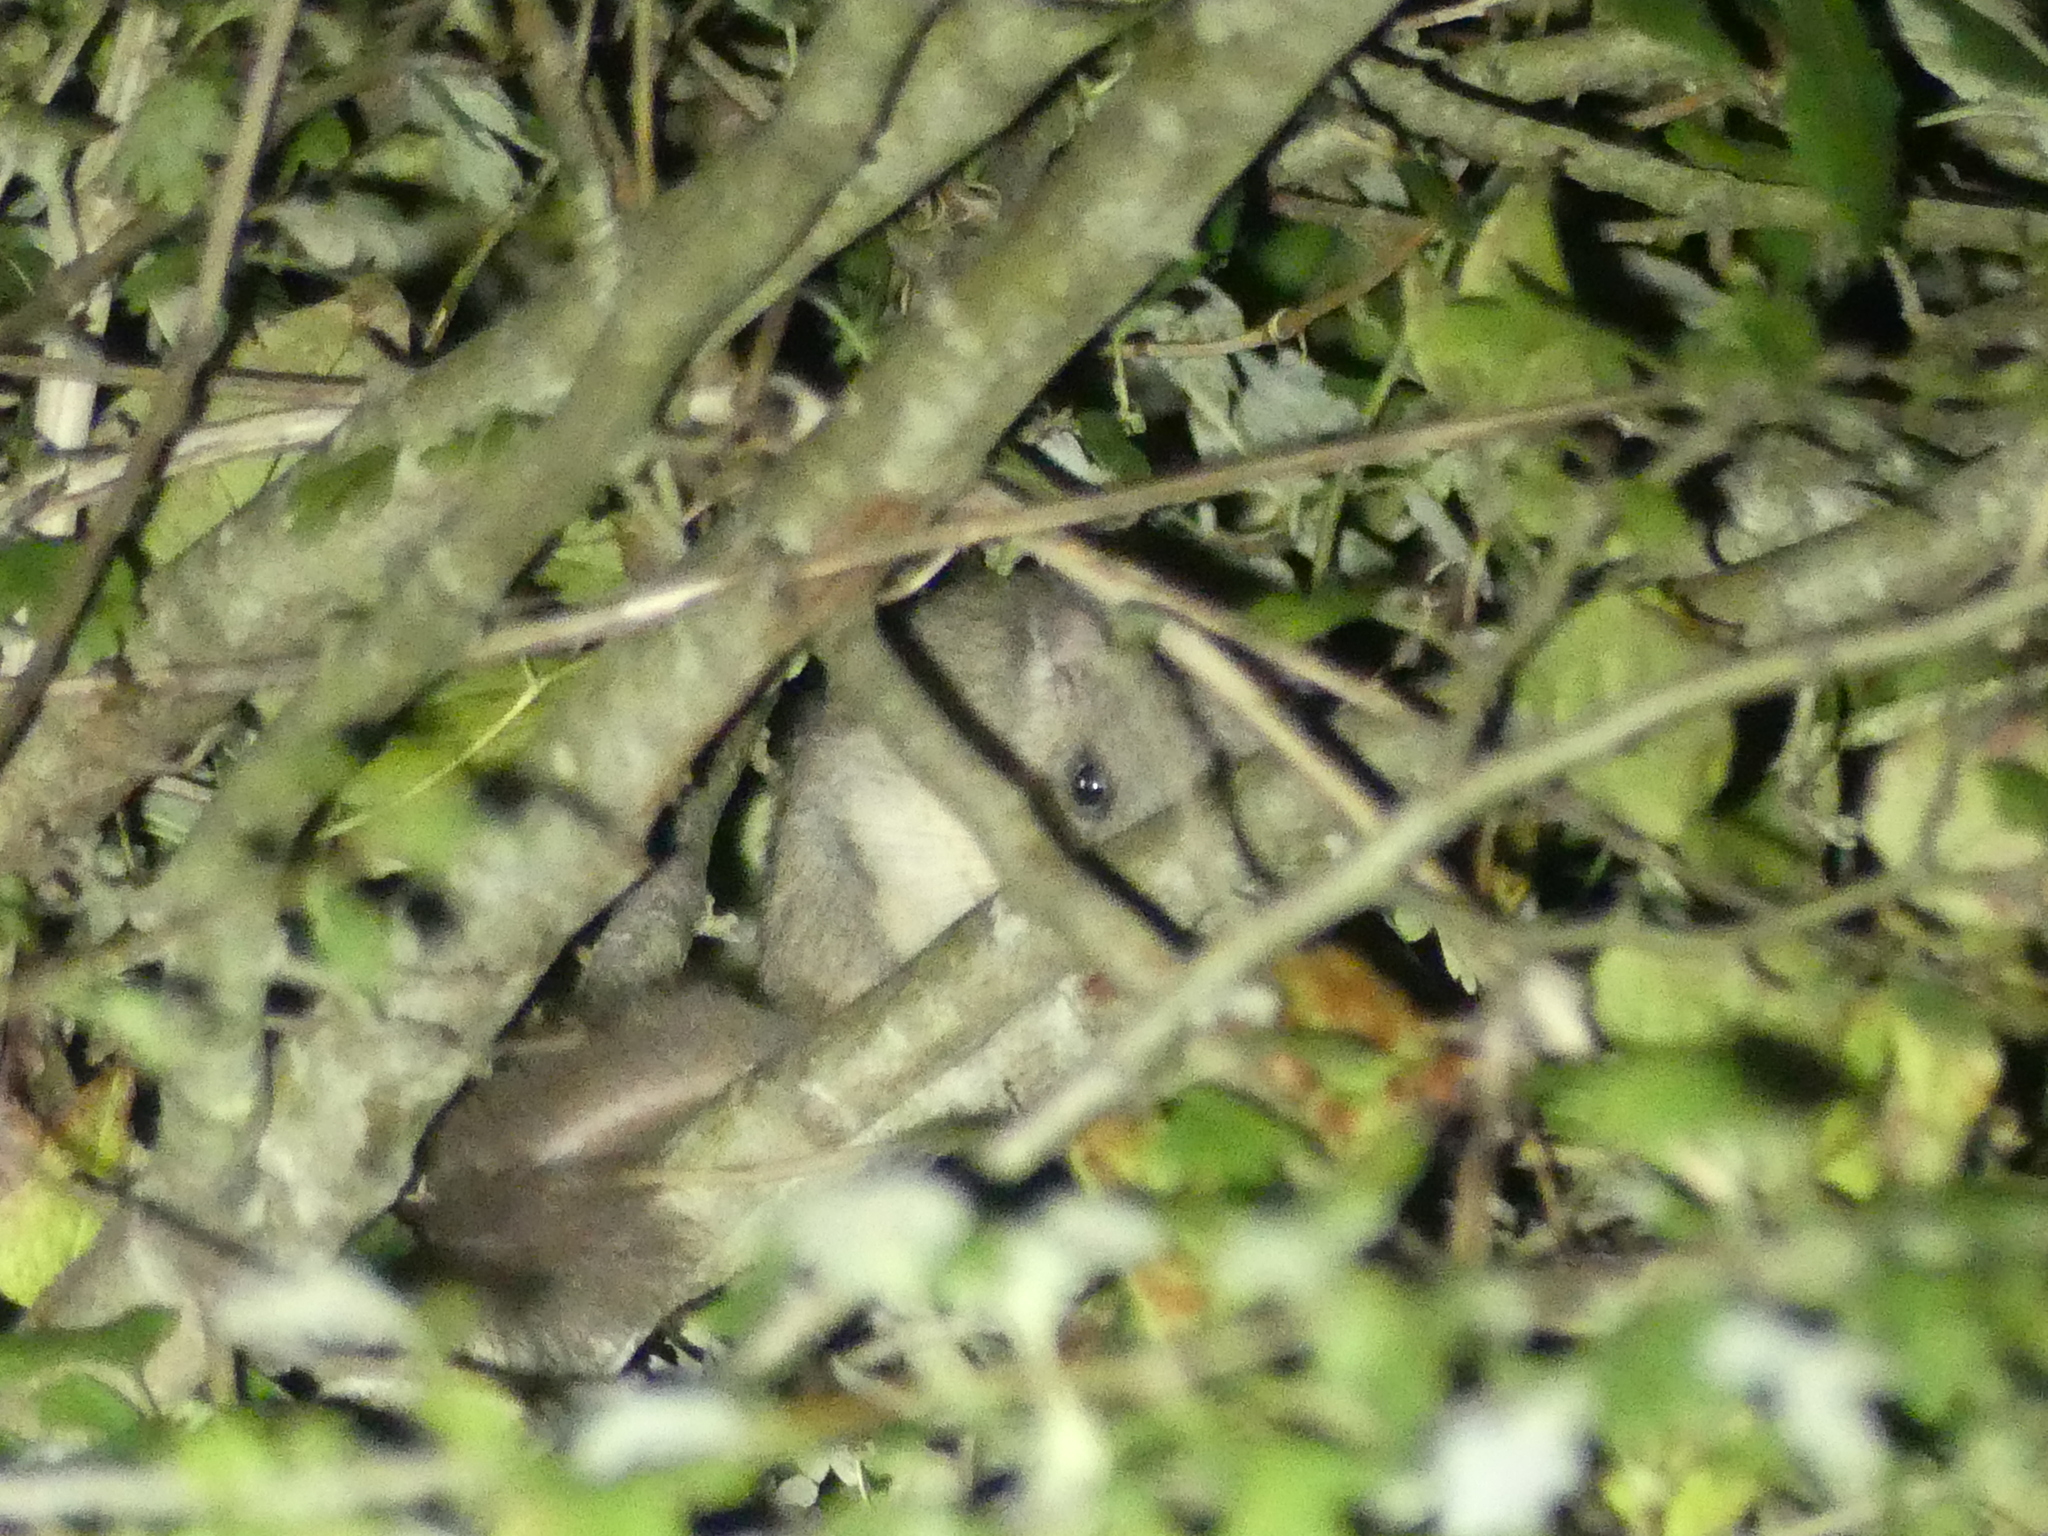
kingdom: Animalia
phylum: Chordata
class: Mammalia
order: Rodentia
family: Gliridae
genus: Glis
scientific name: Glis glis
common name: Fat dormouse
